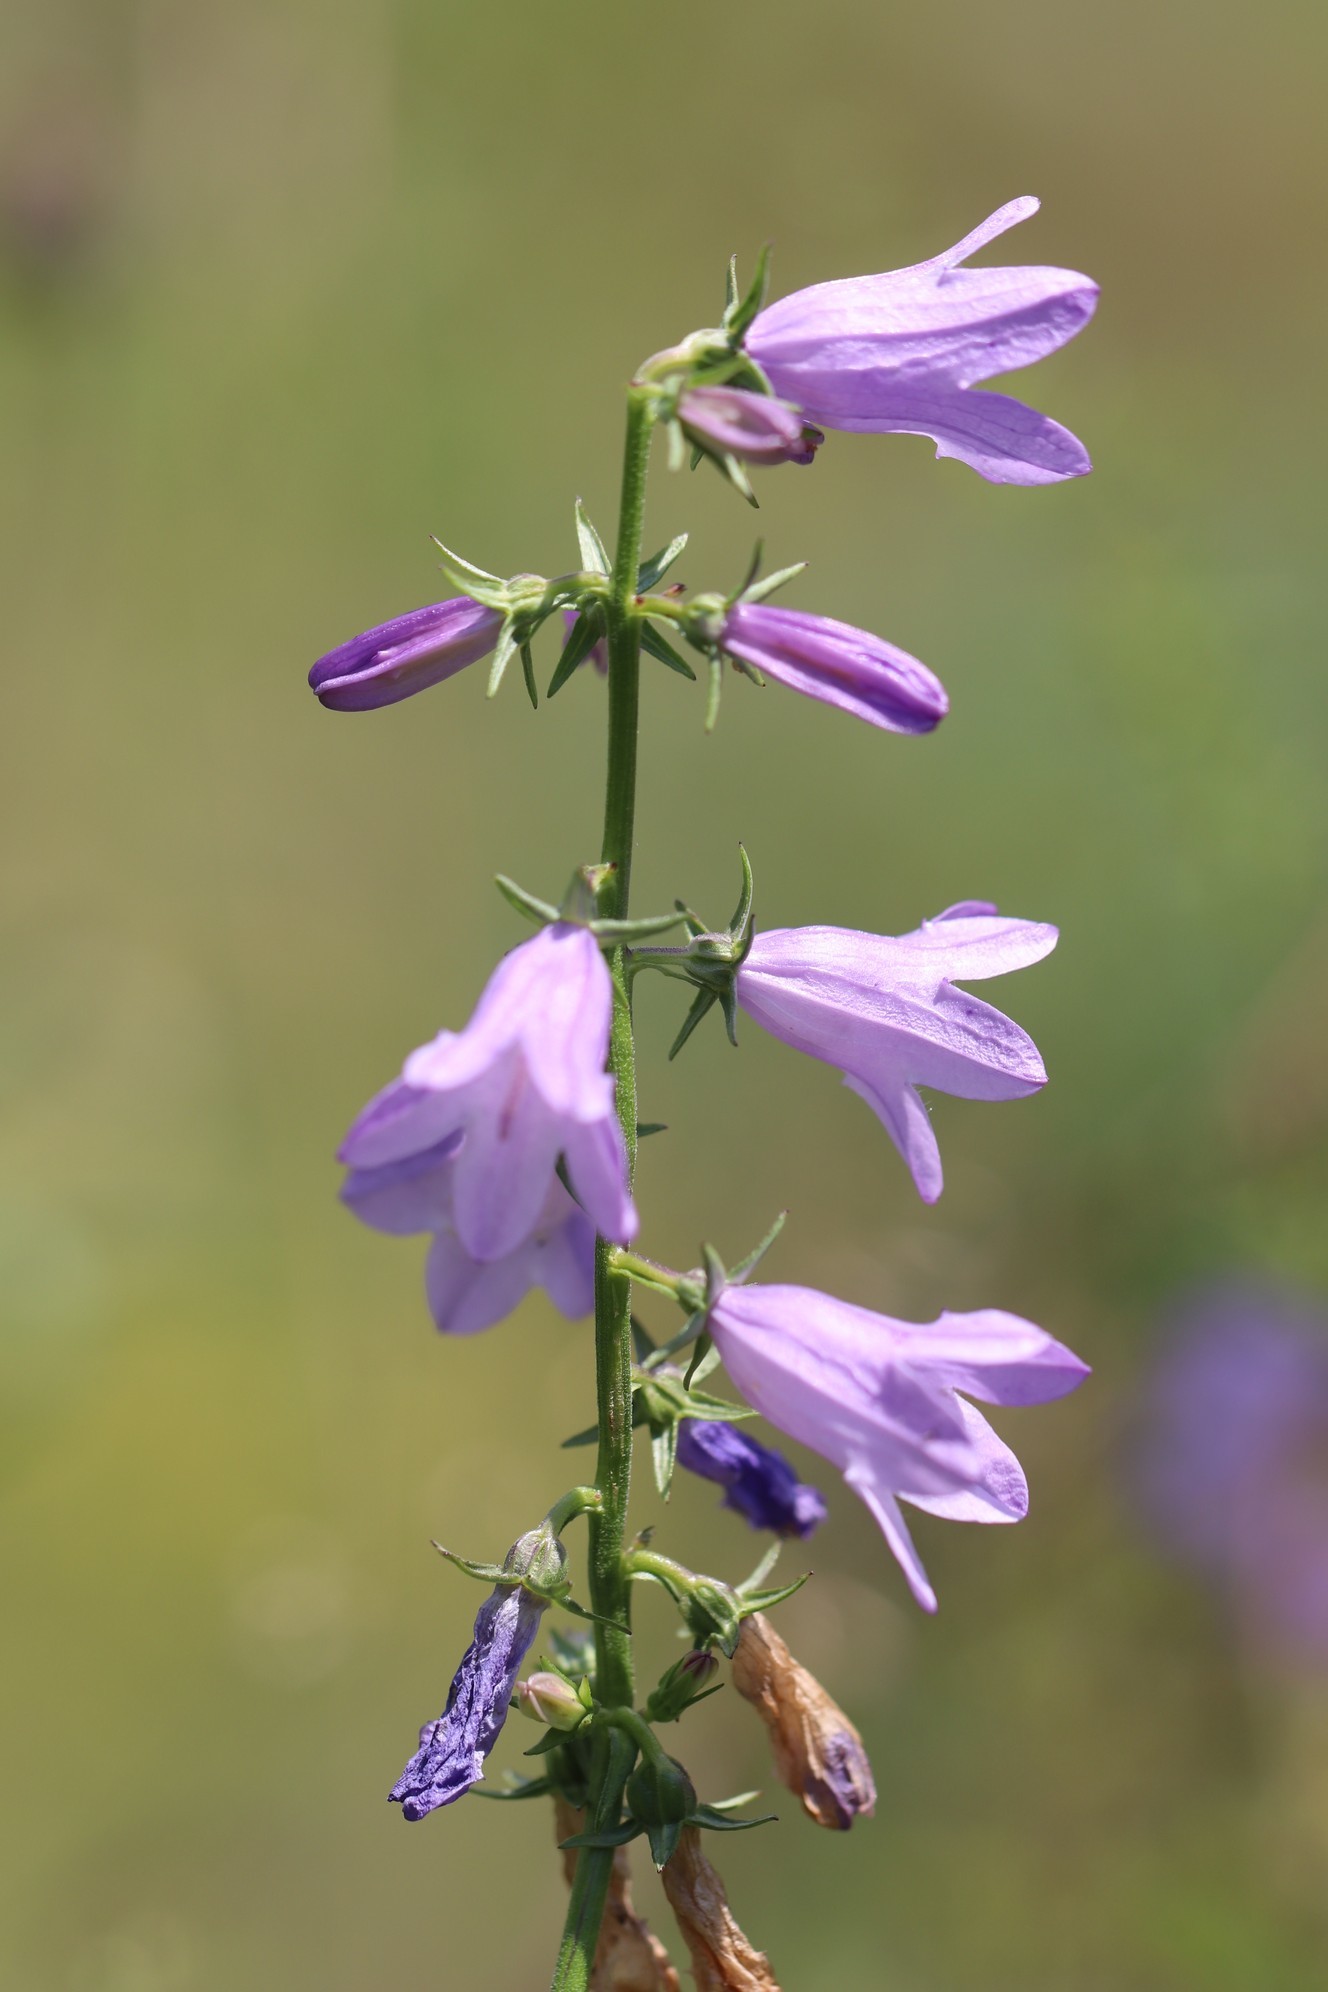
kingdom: Plantae
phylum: Tracheophyta
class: Magnoliopsida
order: Asterales
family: Campanulaceae
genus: Campanula
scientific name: Campanula bononiensis
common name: Pale bellflower
